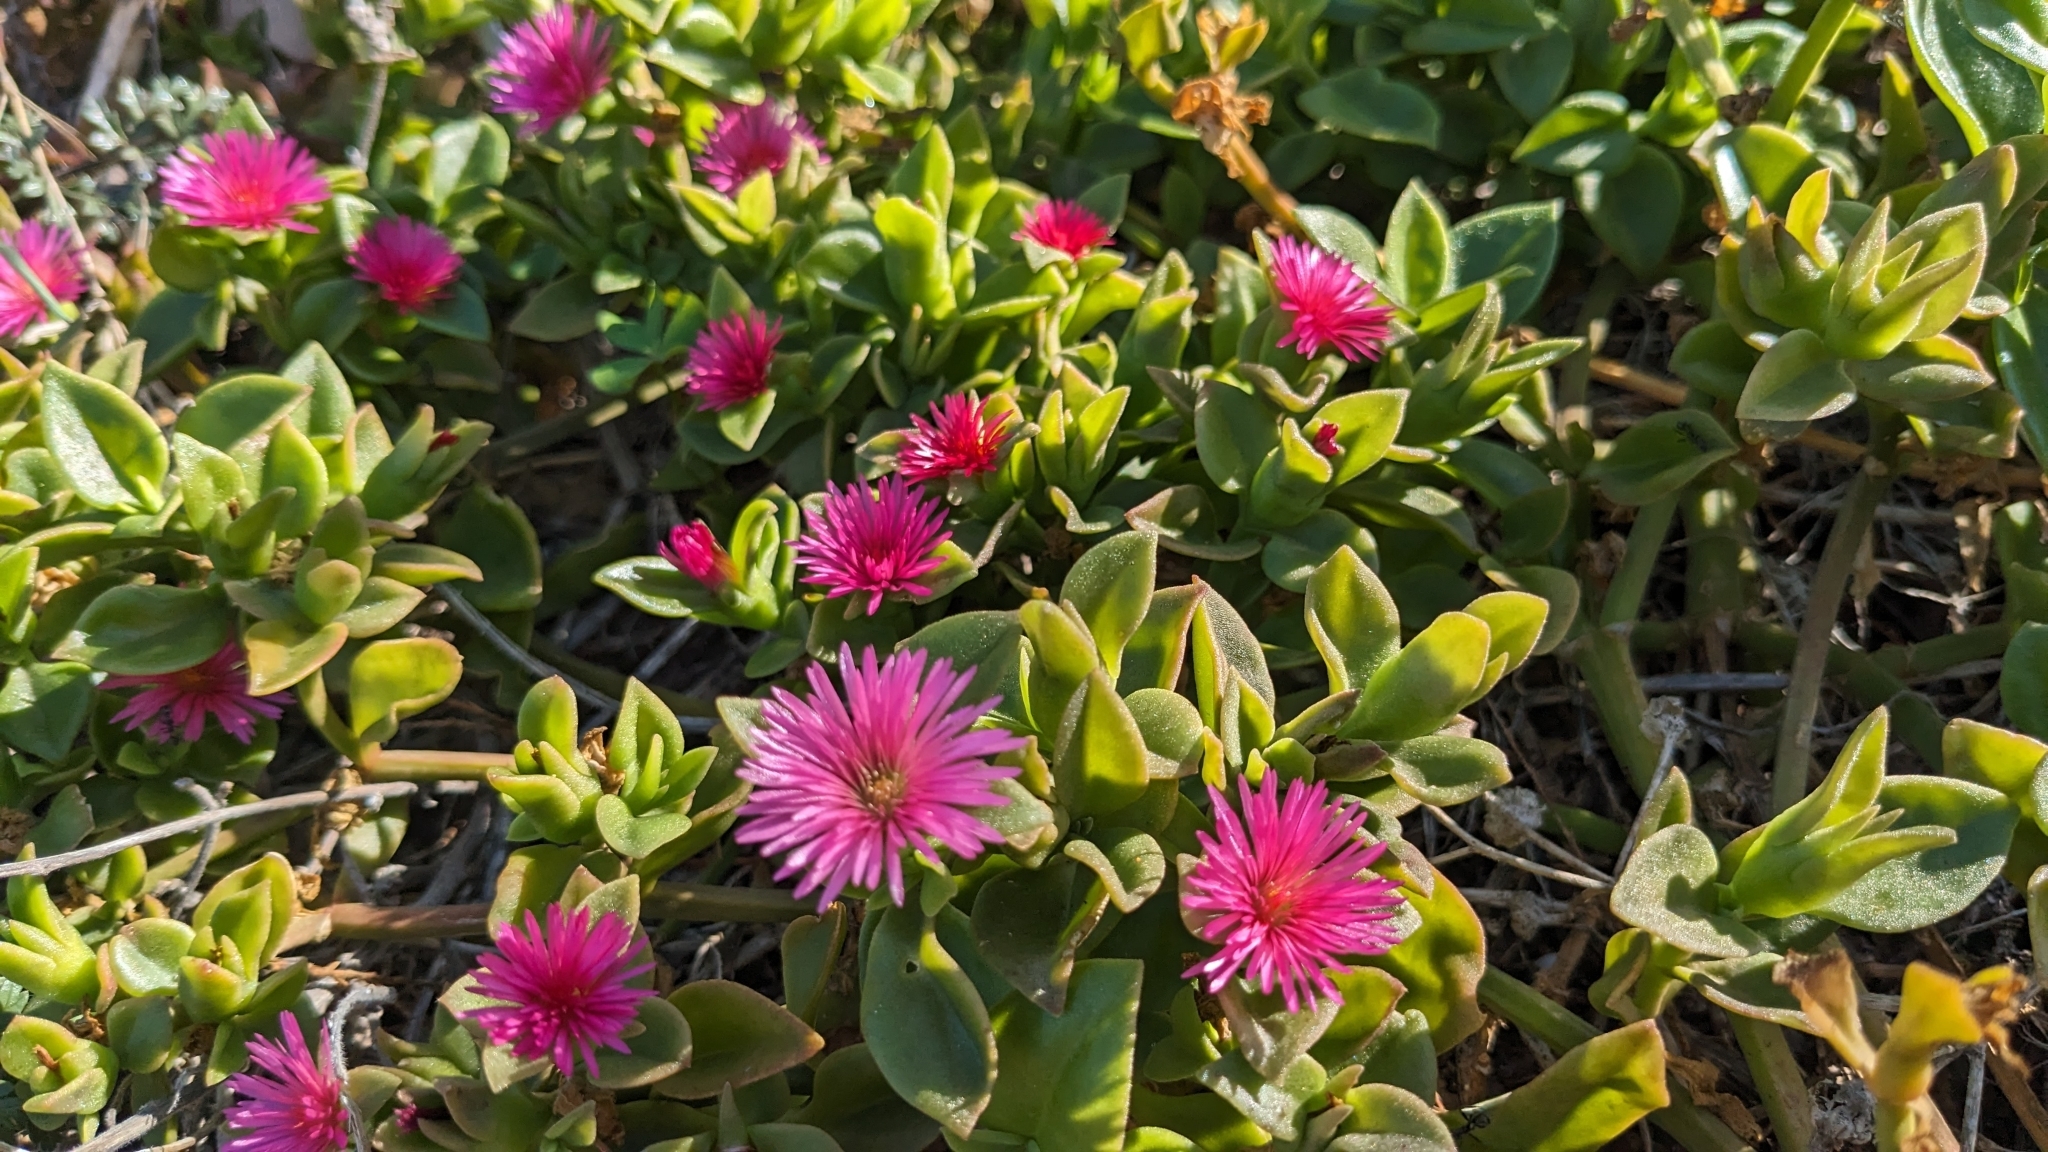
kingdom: Plantae
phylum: Tracheophyta
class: Magnoliopsida
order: Caryophyllales
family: Aizoaceae
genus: Mesembryanthemum
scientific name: Mesembryanthemum cordifolium
